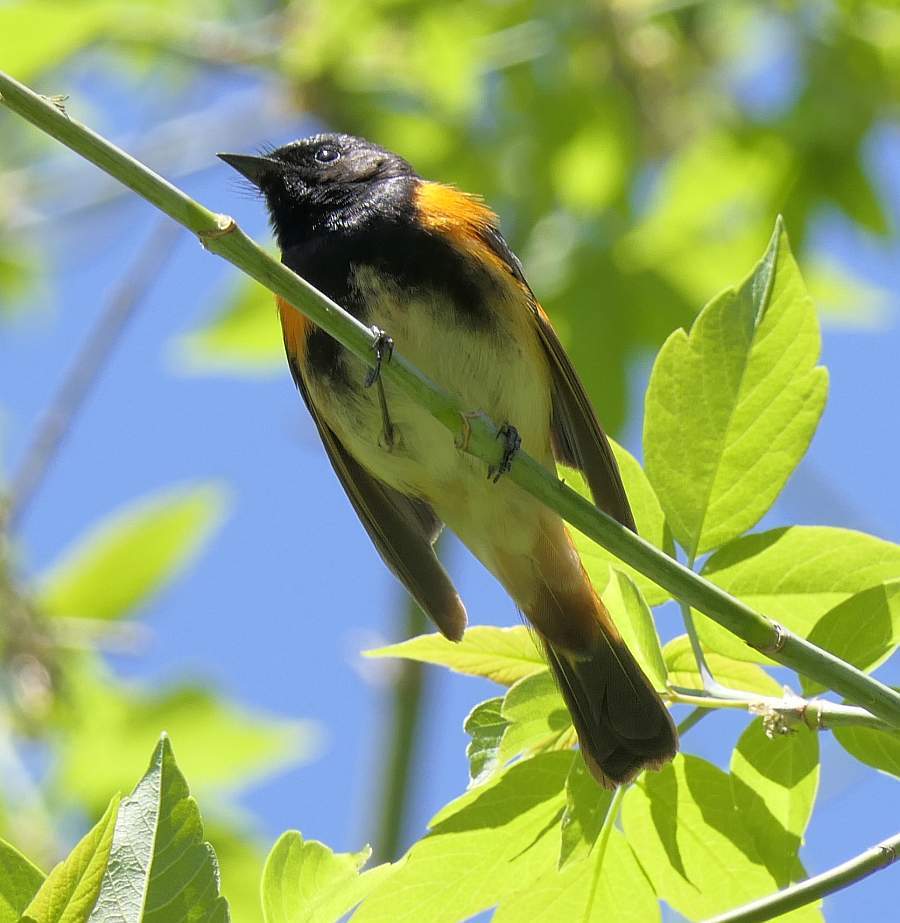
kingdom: Animalia
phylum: Chordata
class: Aves
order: Passeriformes
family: Parulidae
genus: Setophaga
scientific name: Setophaga ruticilla
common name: American redstart
